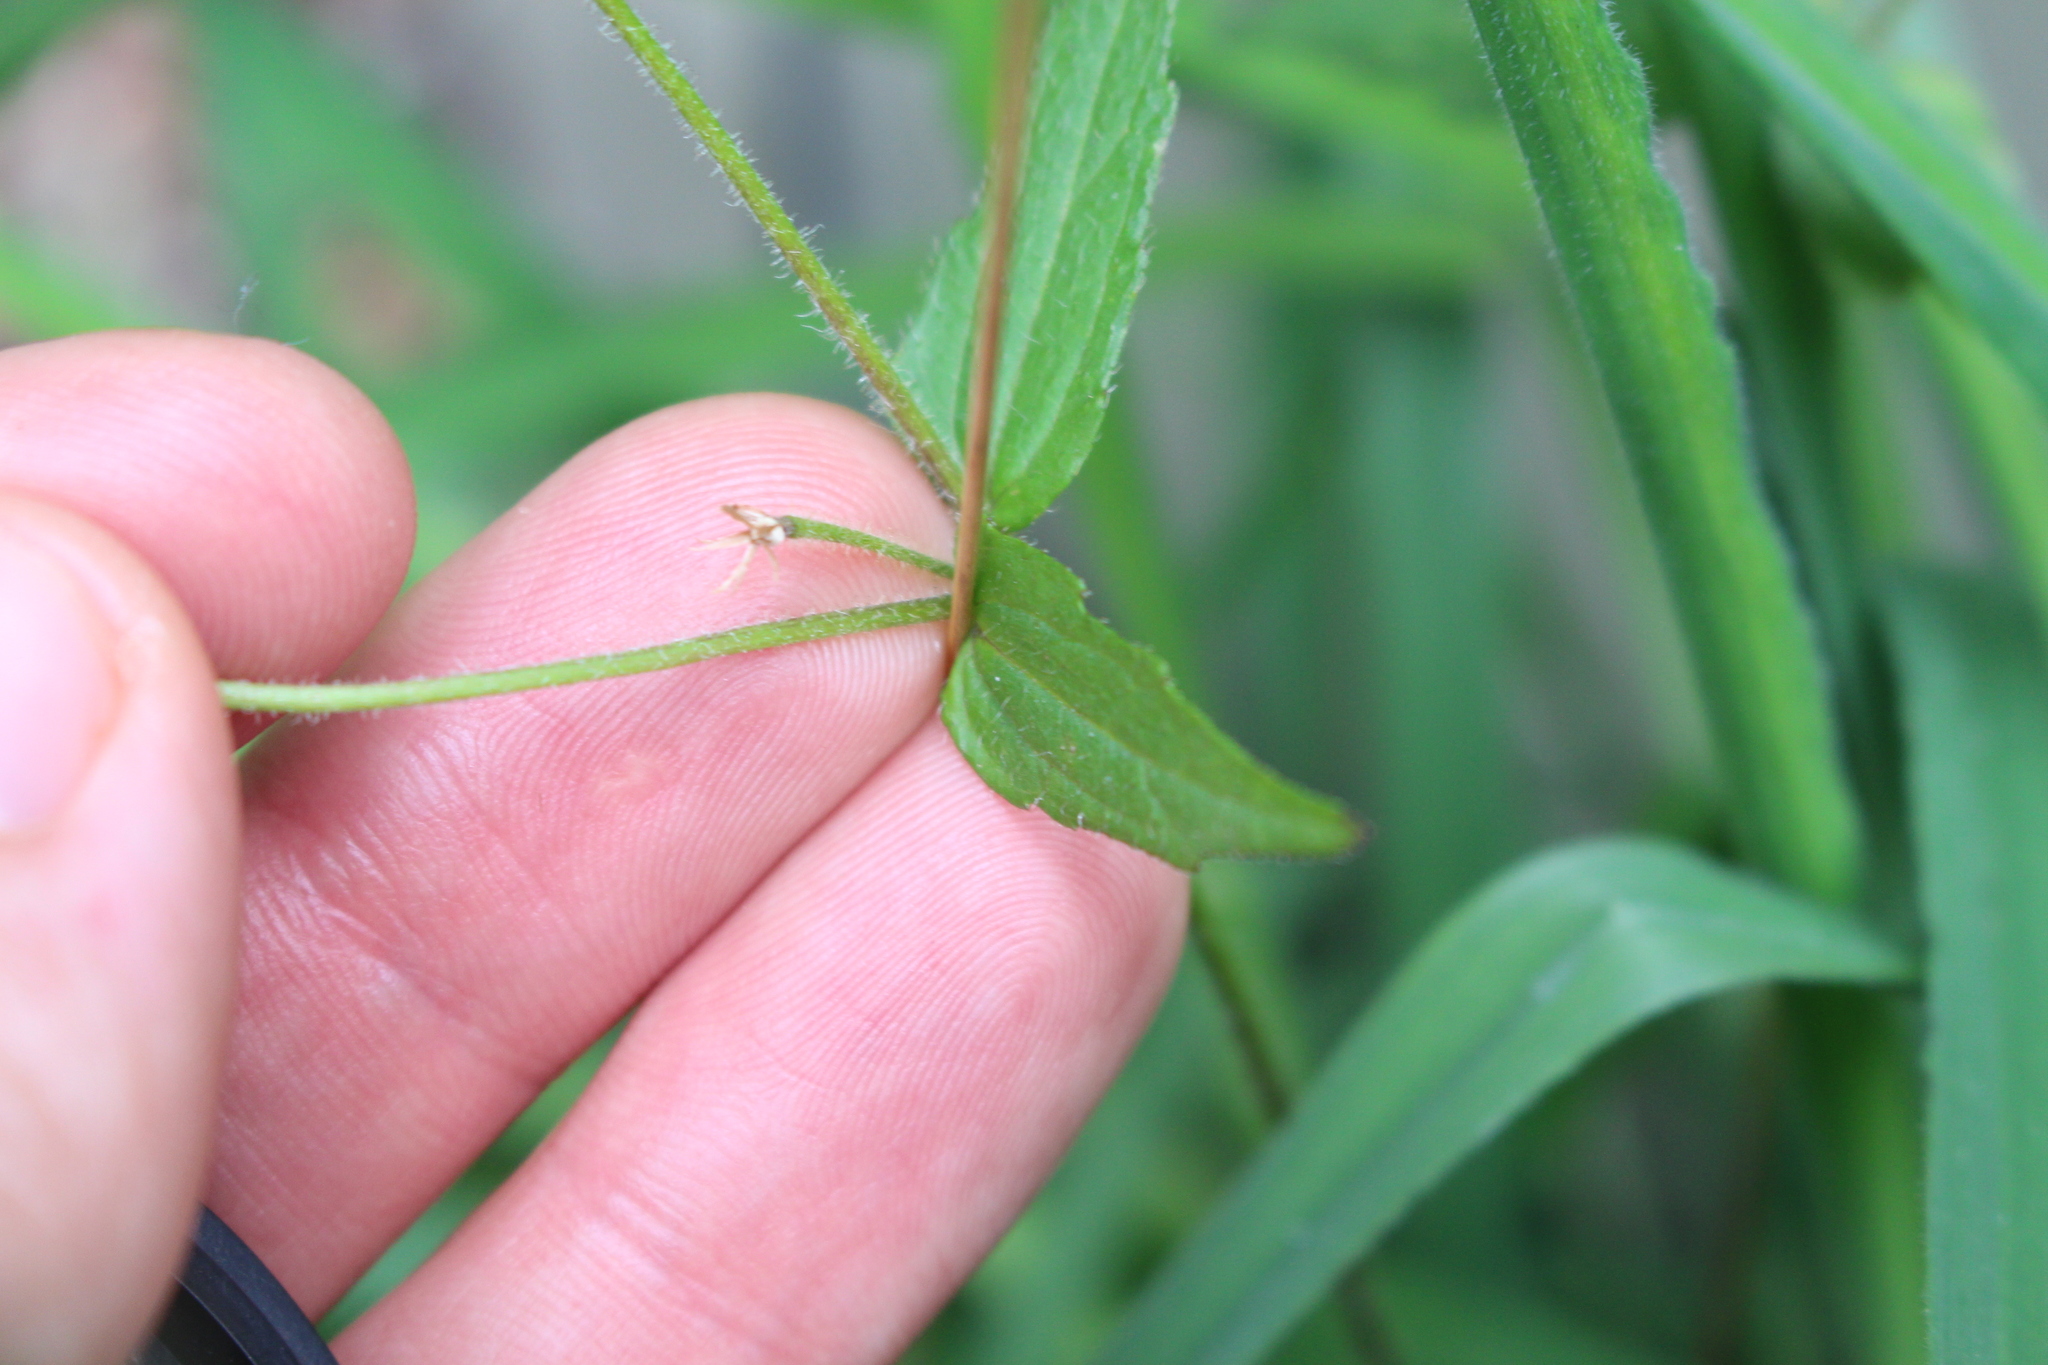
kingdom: Plantae
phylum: Tracheophyta
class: Magnoliopsida
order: Asterales
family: Asteraceae
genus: Galinsoga
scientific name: Galinsoga quadriradiata
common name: Shaggy soldier
